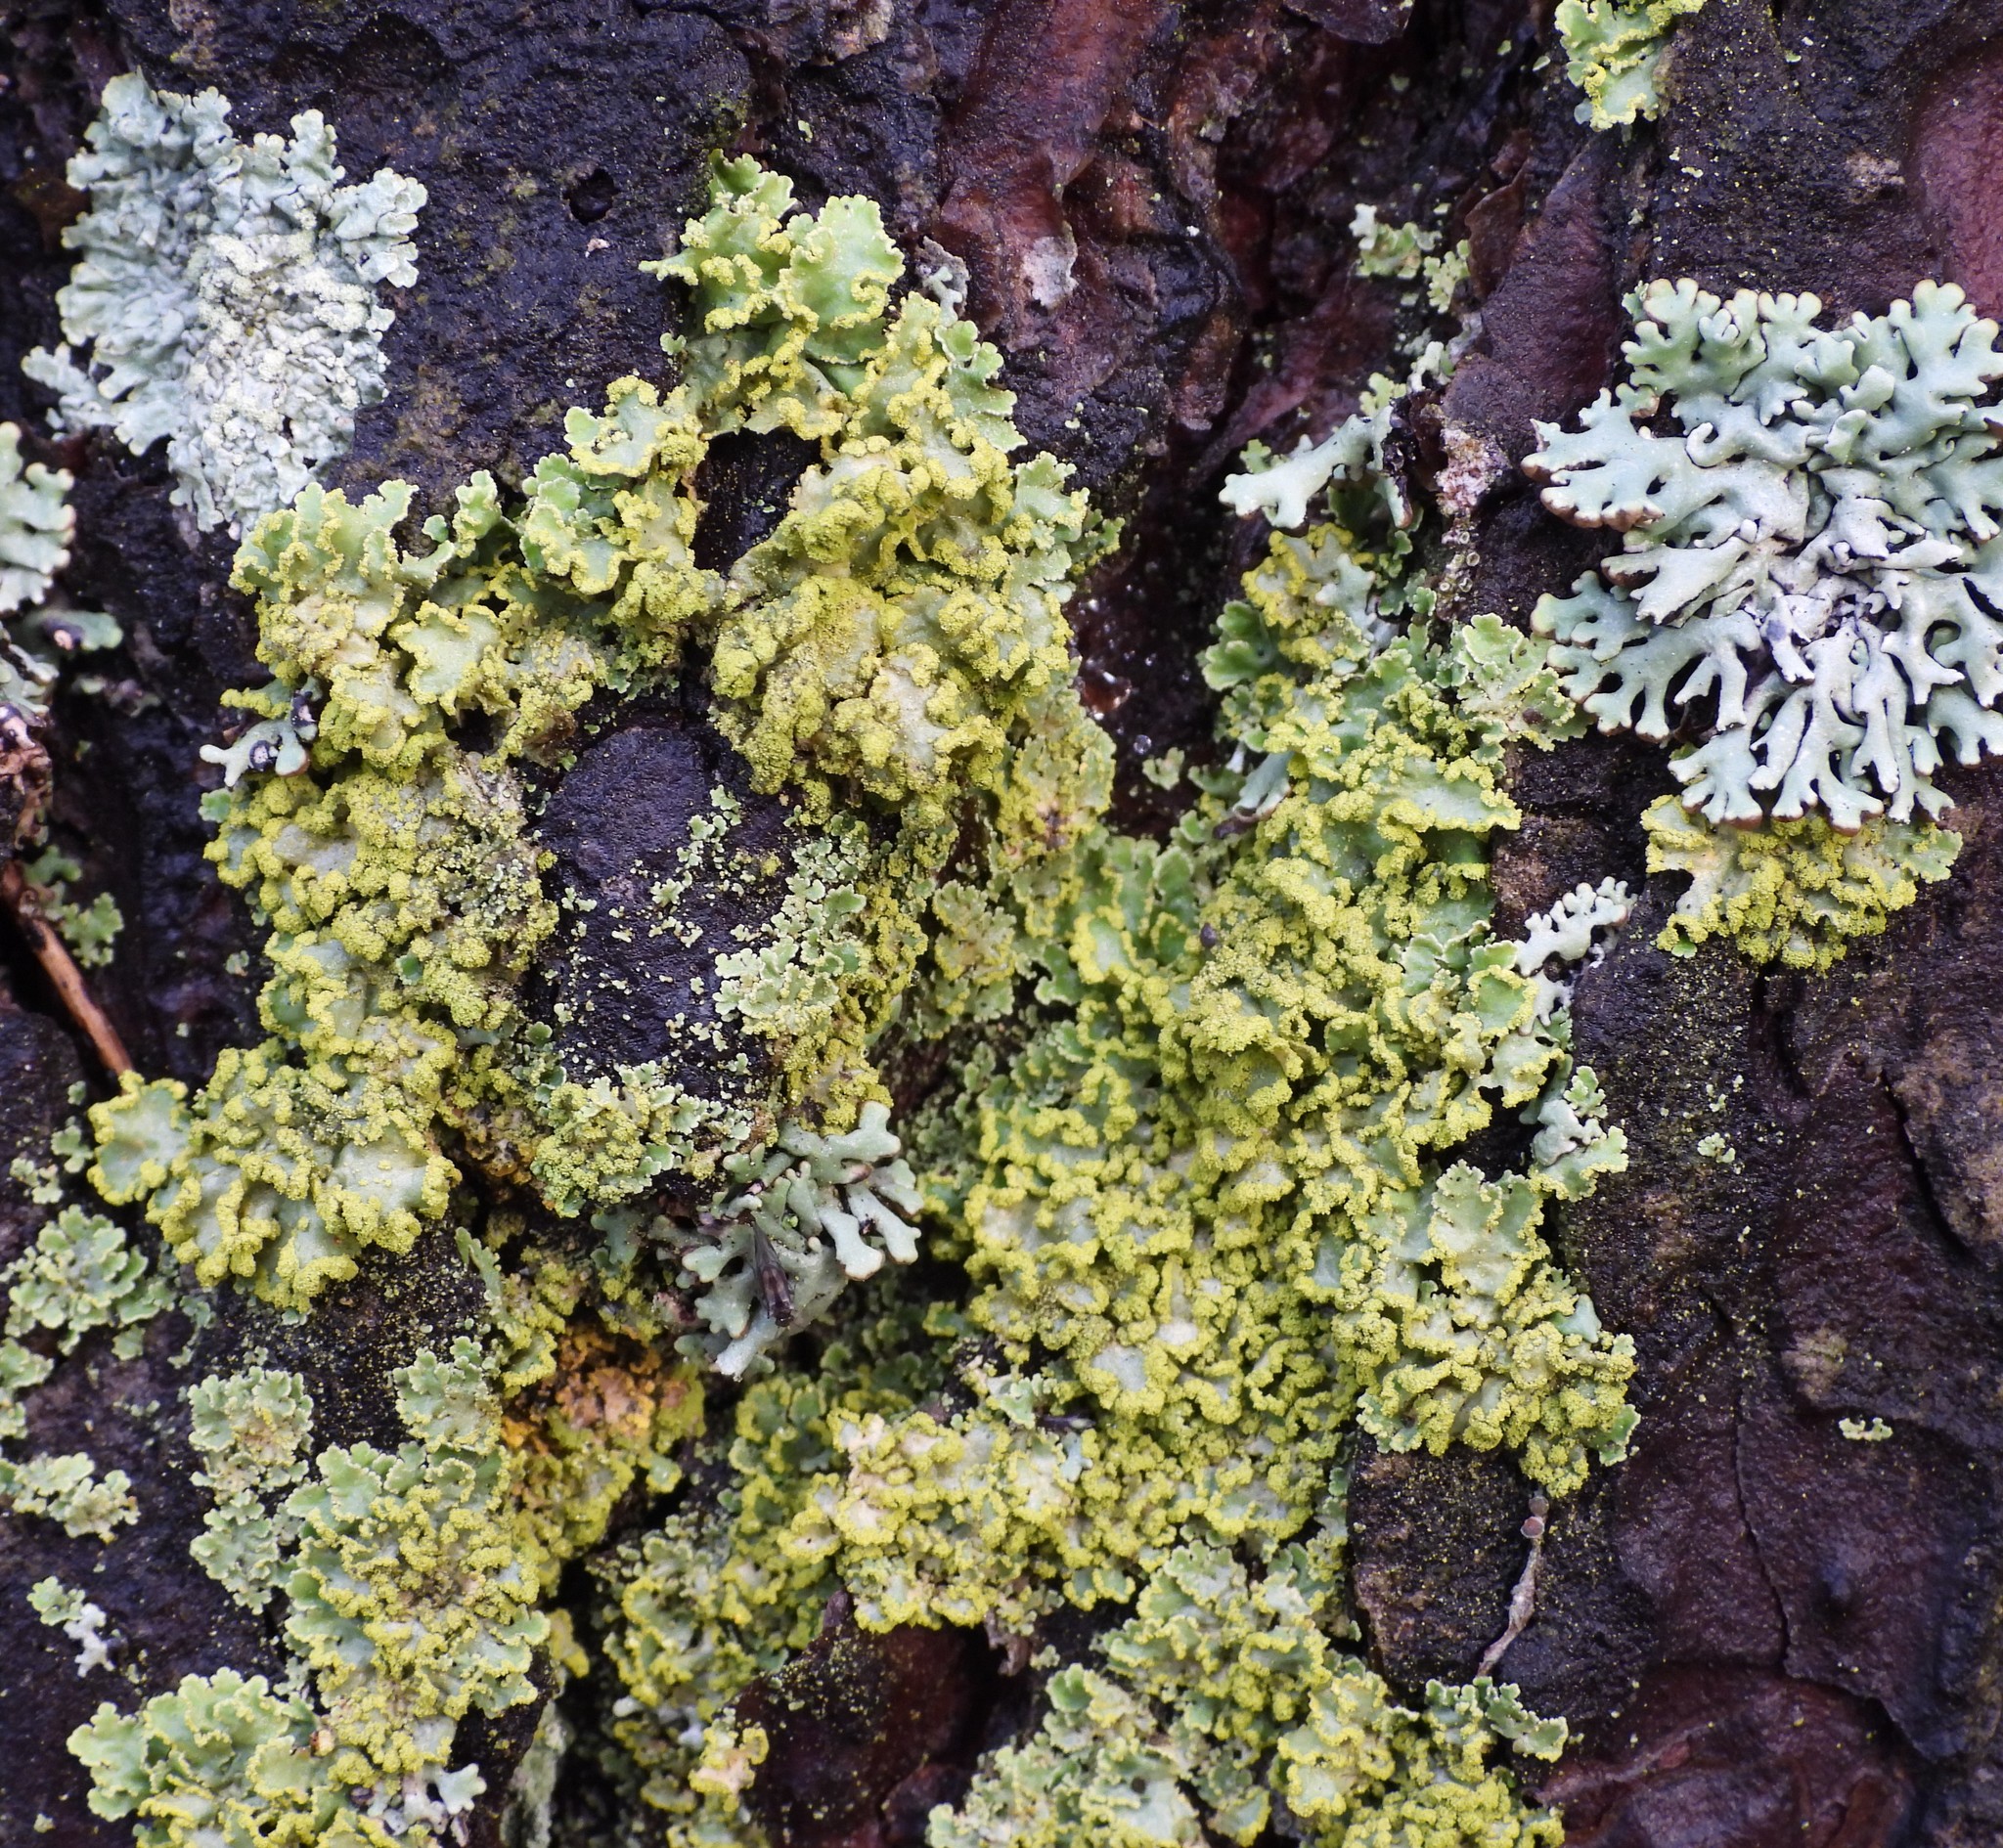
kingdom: Fungi
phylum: Ascomycota
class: Lecanoromycetes
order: Lecanorales
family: Parmeliaceae
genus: Vulpicida
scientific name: Vulpicida pinastri
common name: Powdered sunshine lichen
